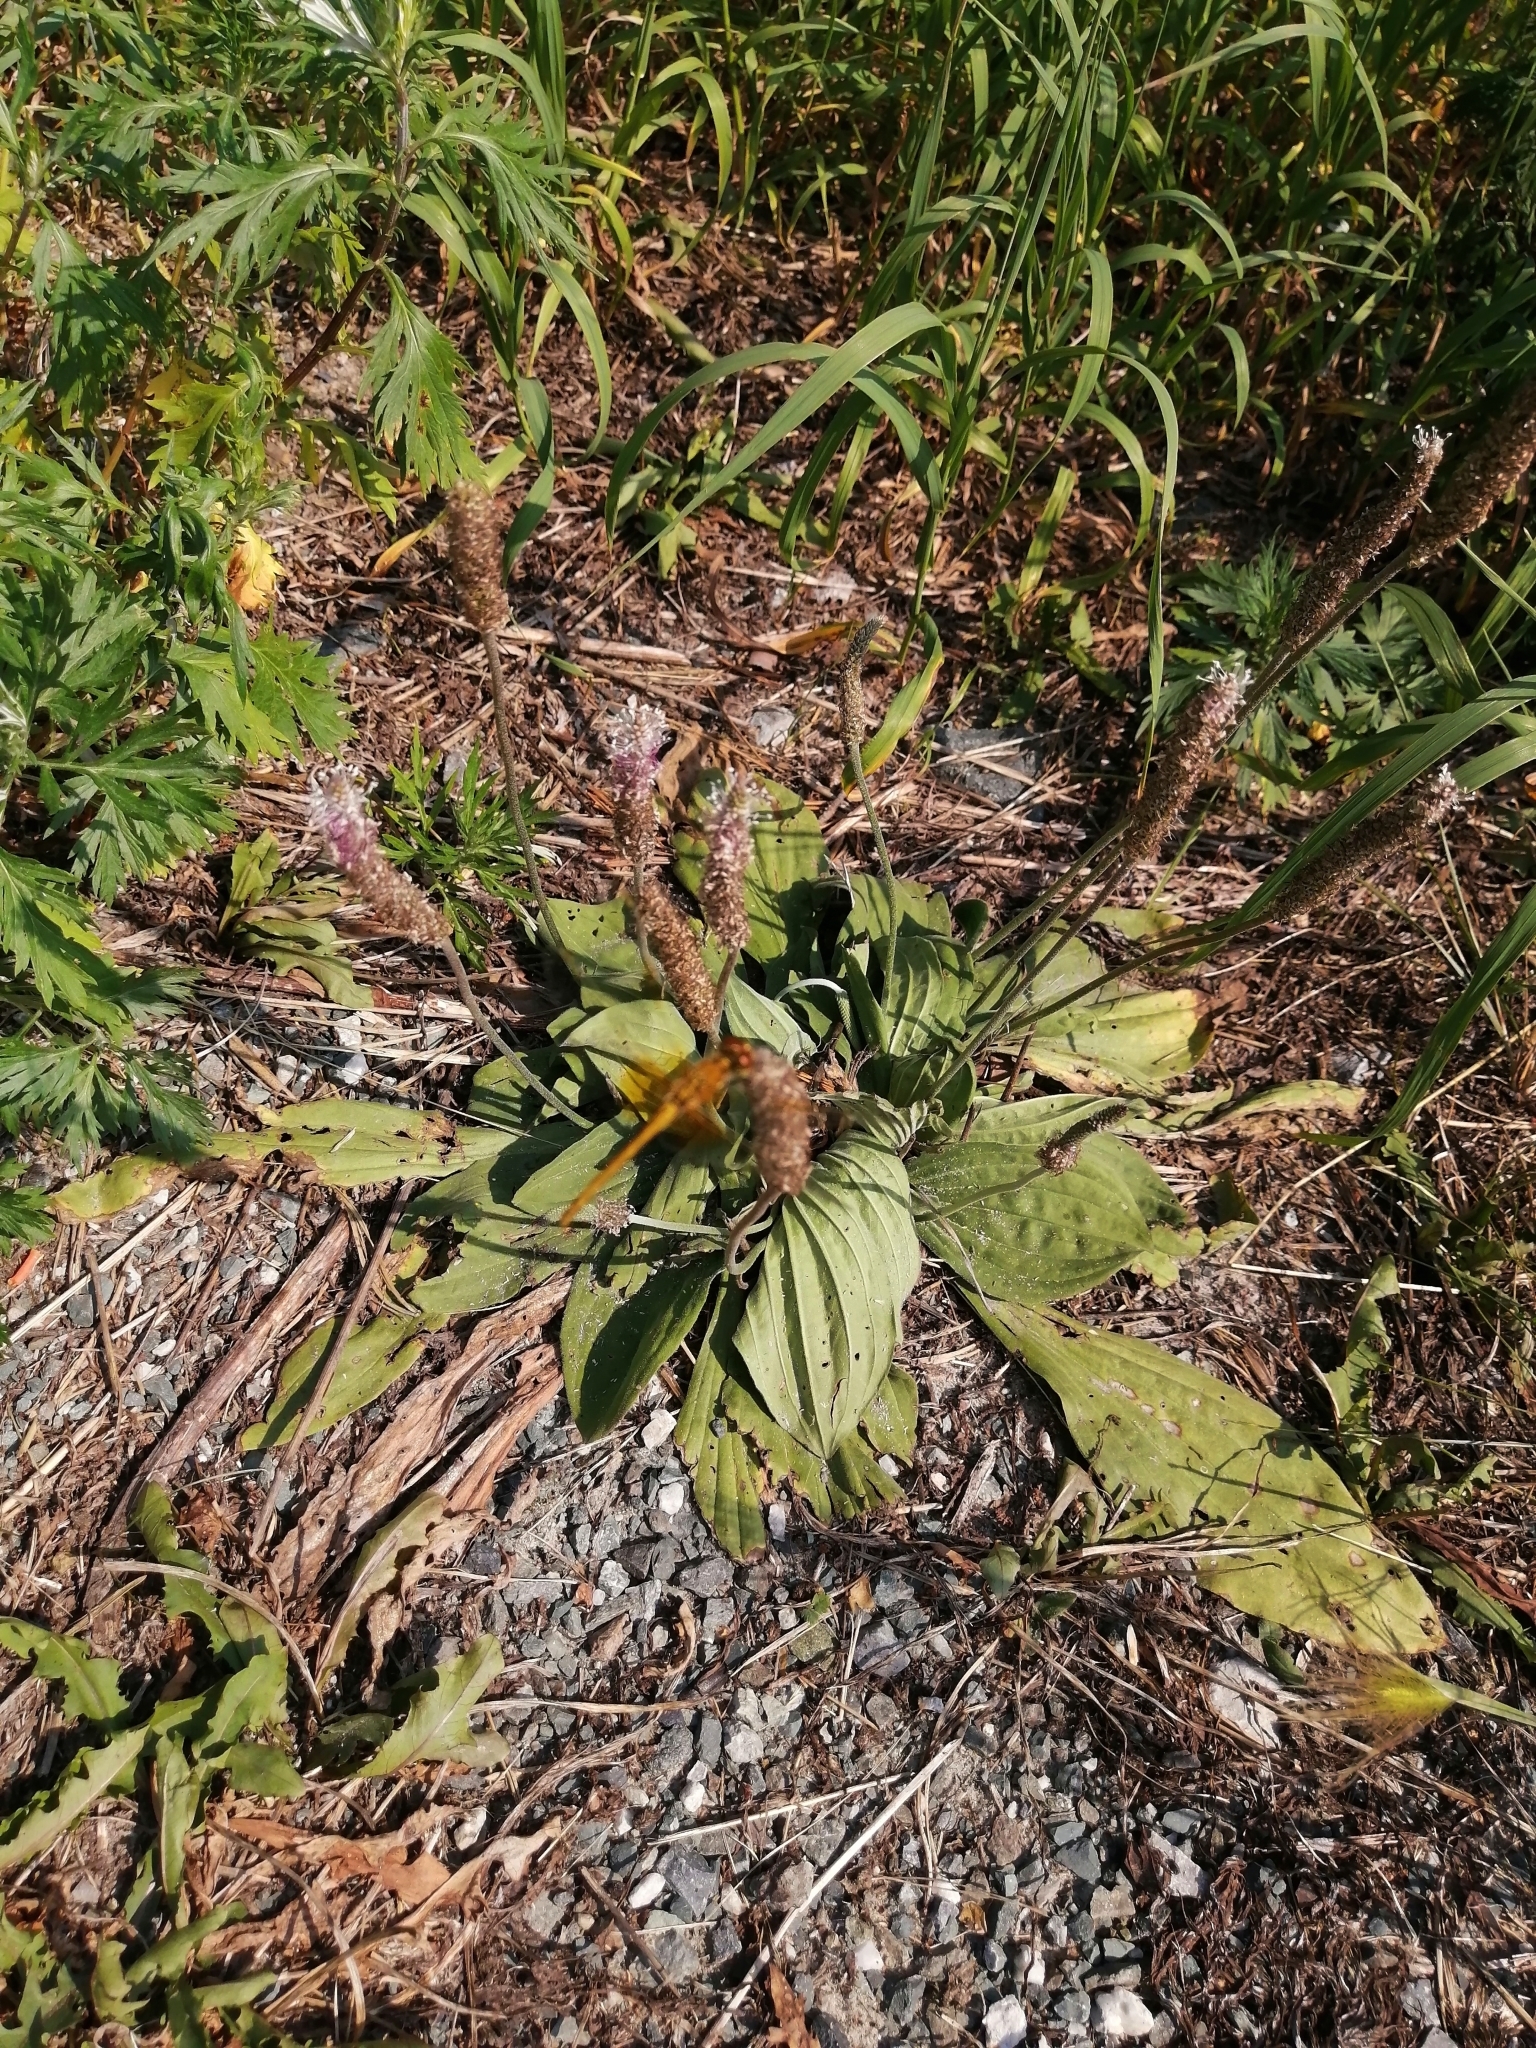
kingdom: Plantae
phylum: Tracheophyta
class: Magnoliopsida
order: Lamiales
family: Plantaginaceae
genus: Plantago
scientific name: Plantago media
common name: Hoary plantain
